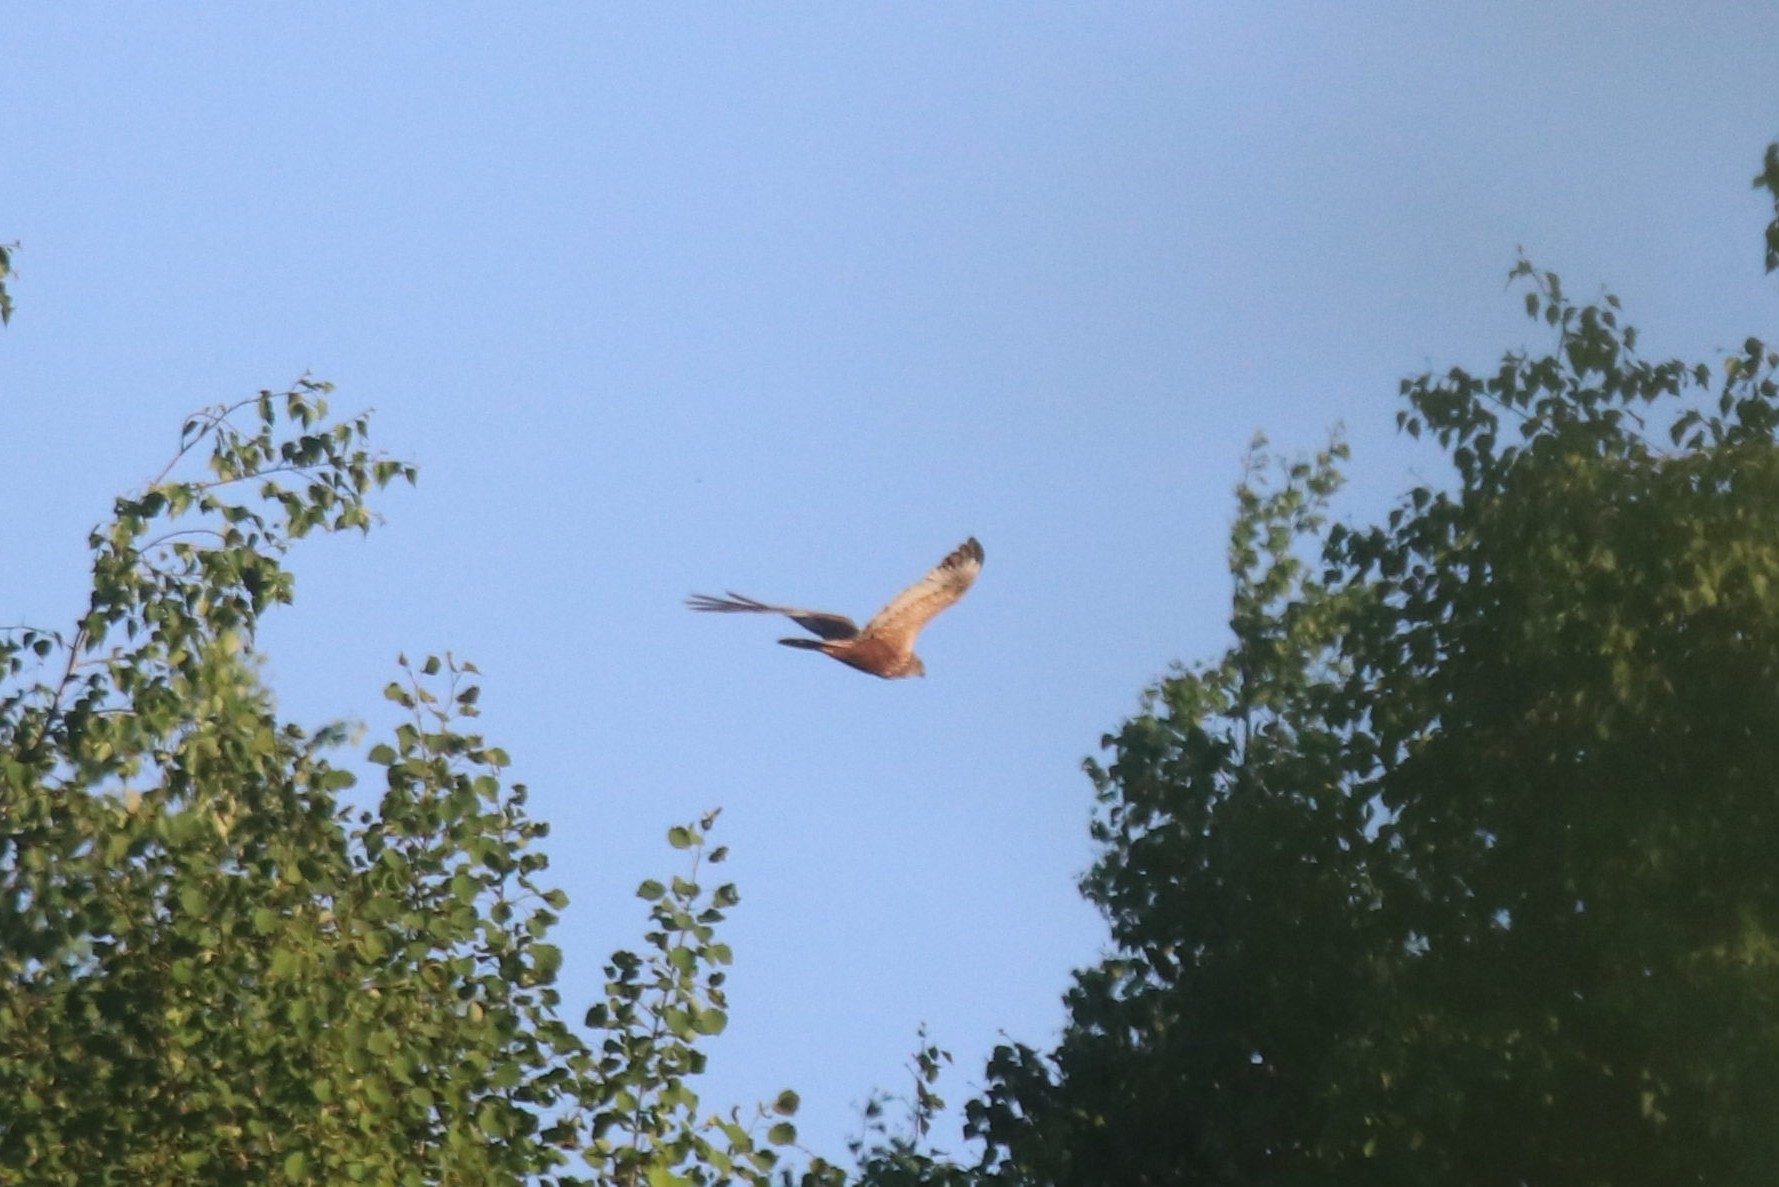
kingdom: Animalia
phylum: Chordata
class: Aves
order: Accipitriformes
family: Accipitridae
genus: Circus
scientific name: Circus aeruginosus
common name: Western marsh harrier
